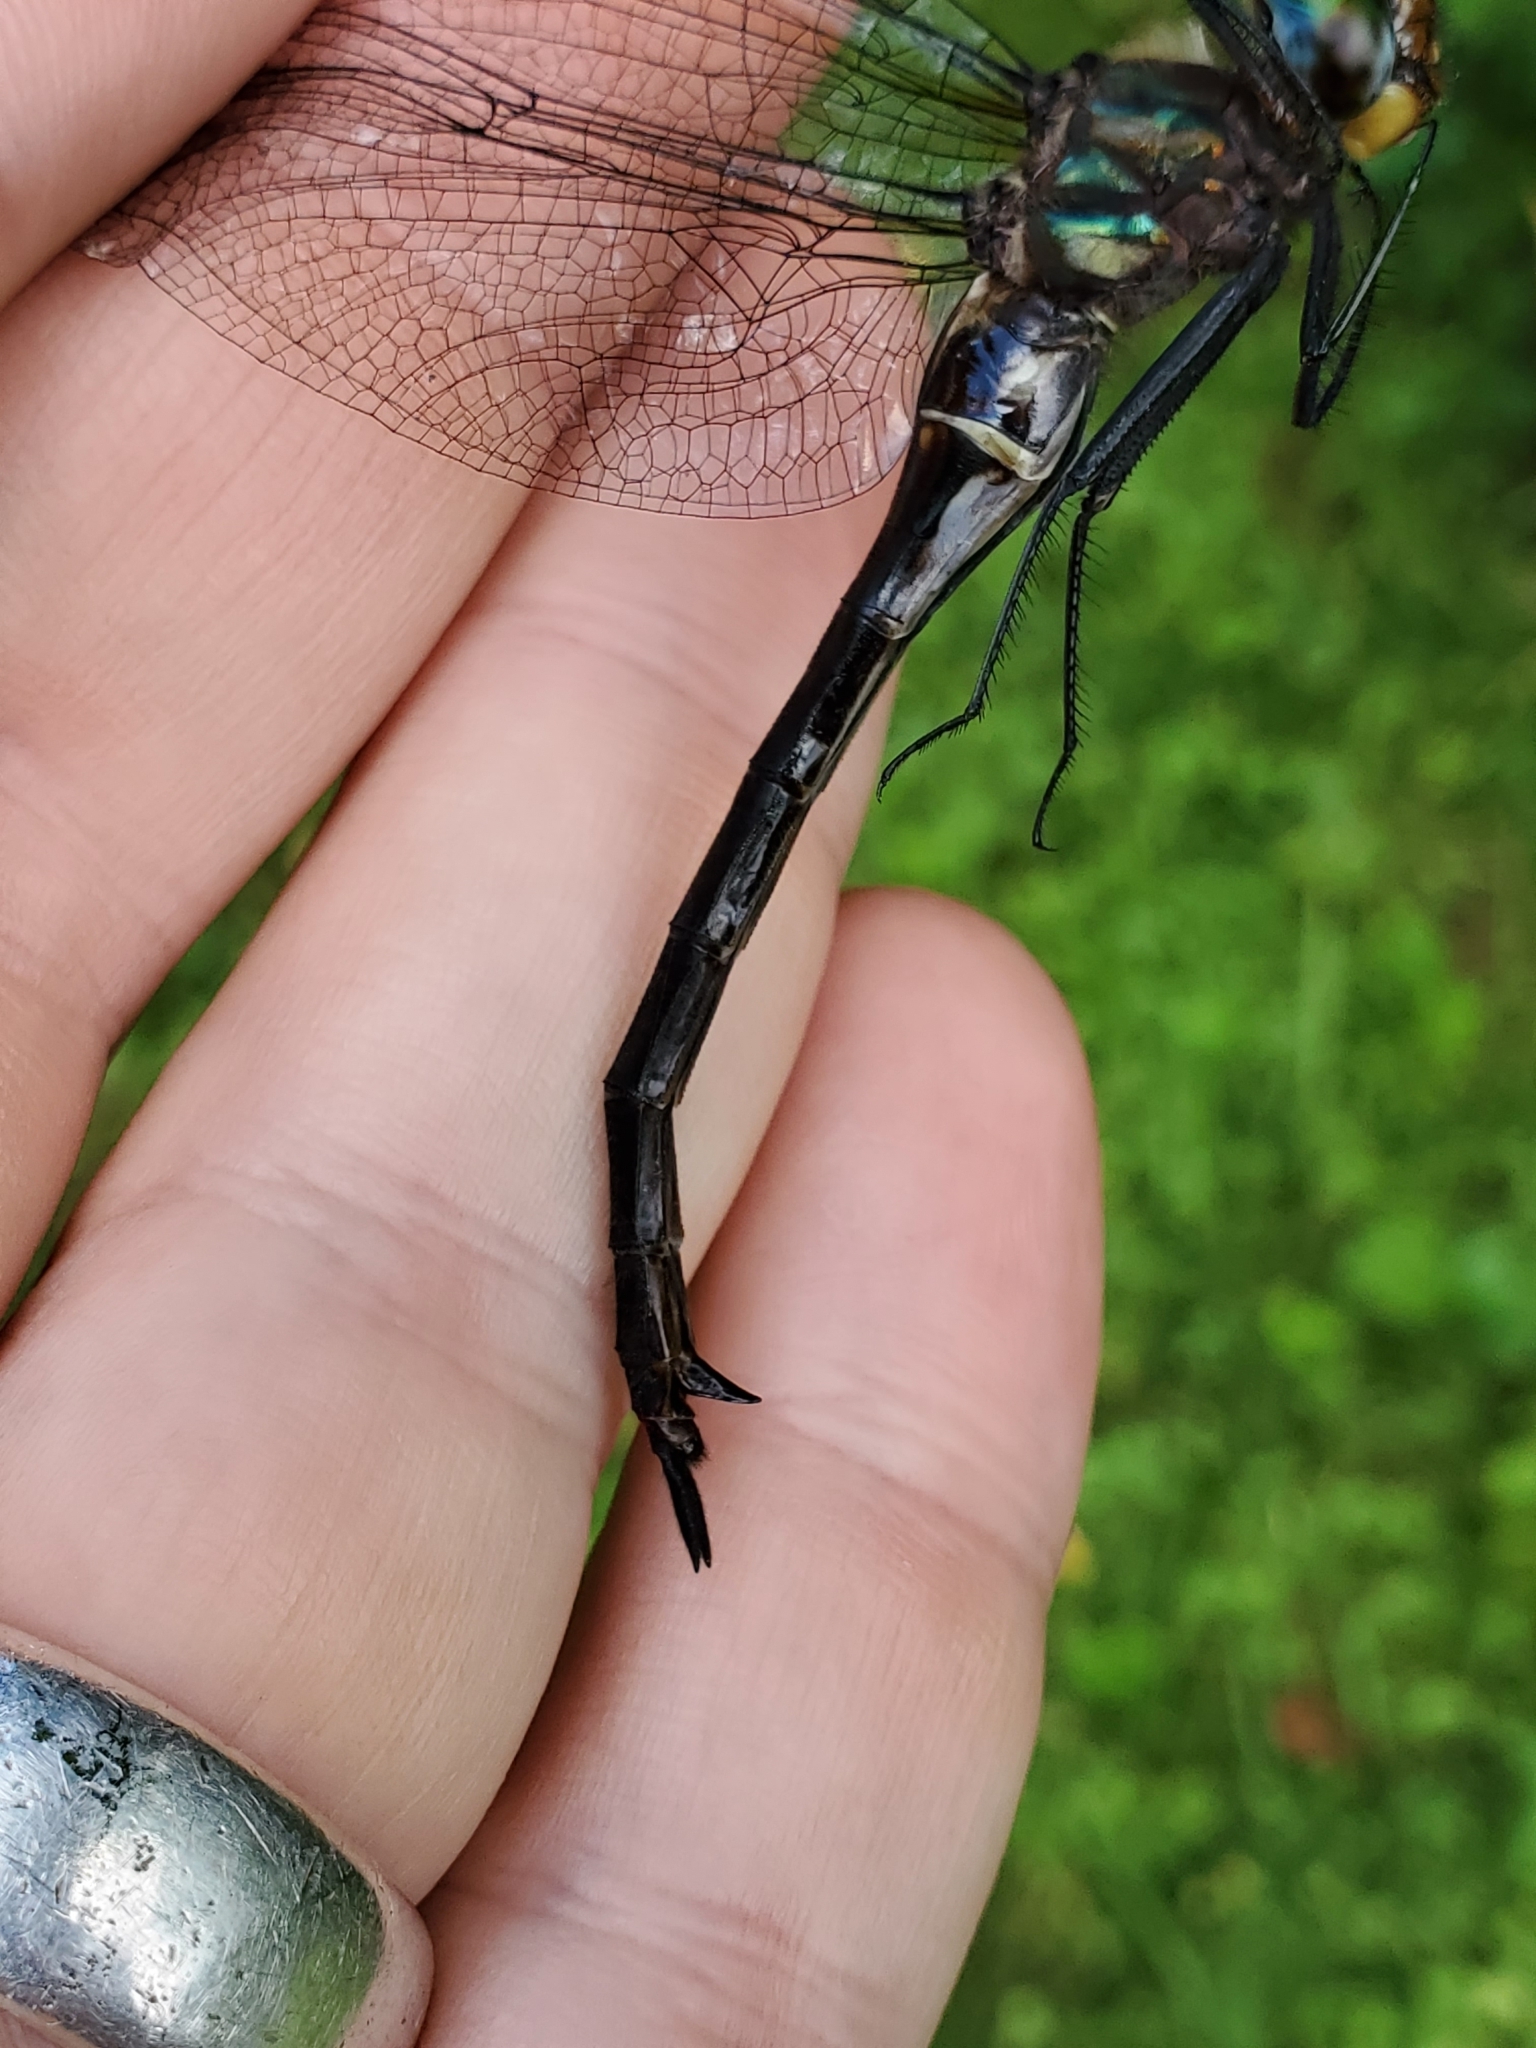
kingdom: Animalia
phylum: Arthropoda
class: Insecta
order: Odonata
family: Corduliidae
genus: Somatochlora
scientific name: Somatochlora tenebrosa
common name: Clamp-tipped emerald
